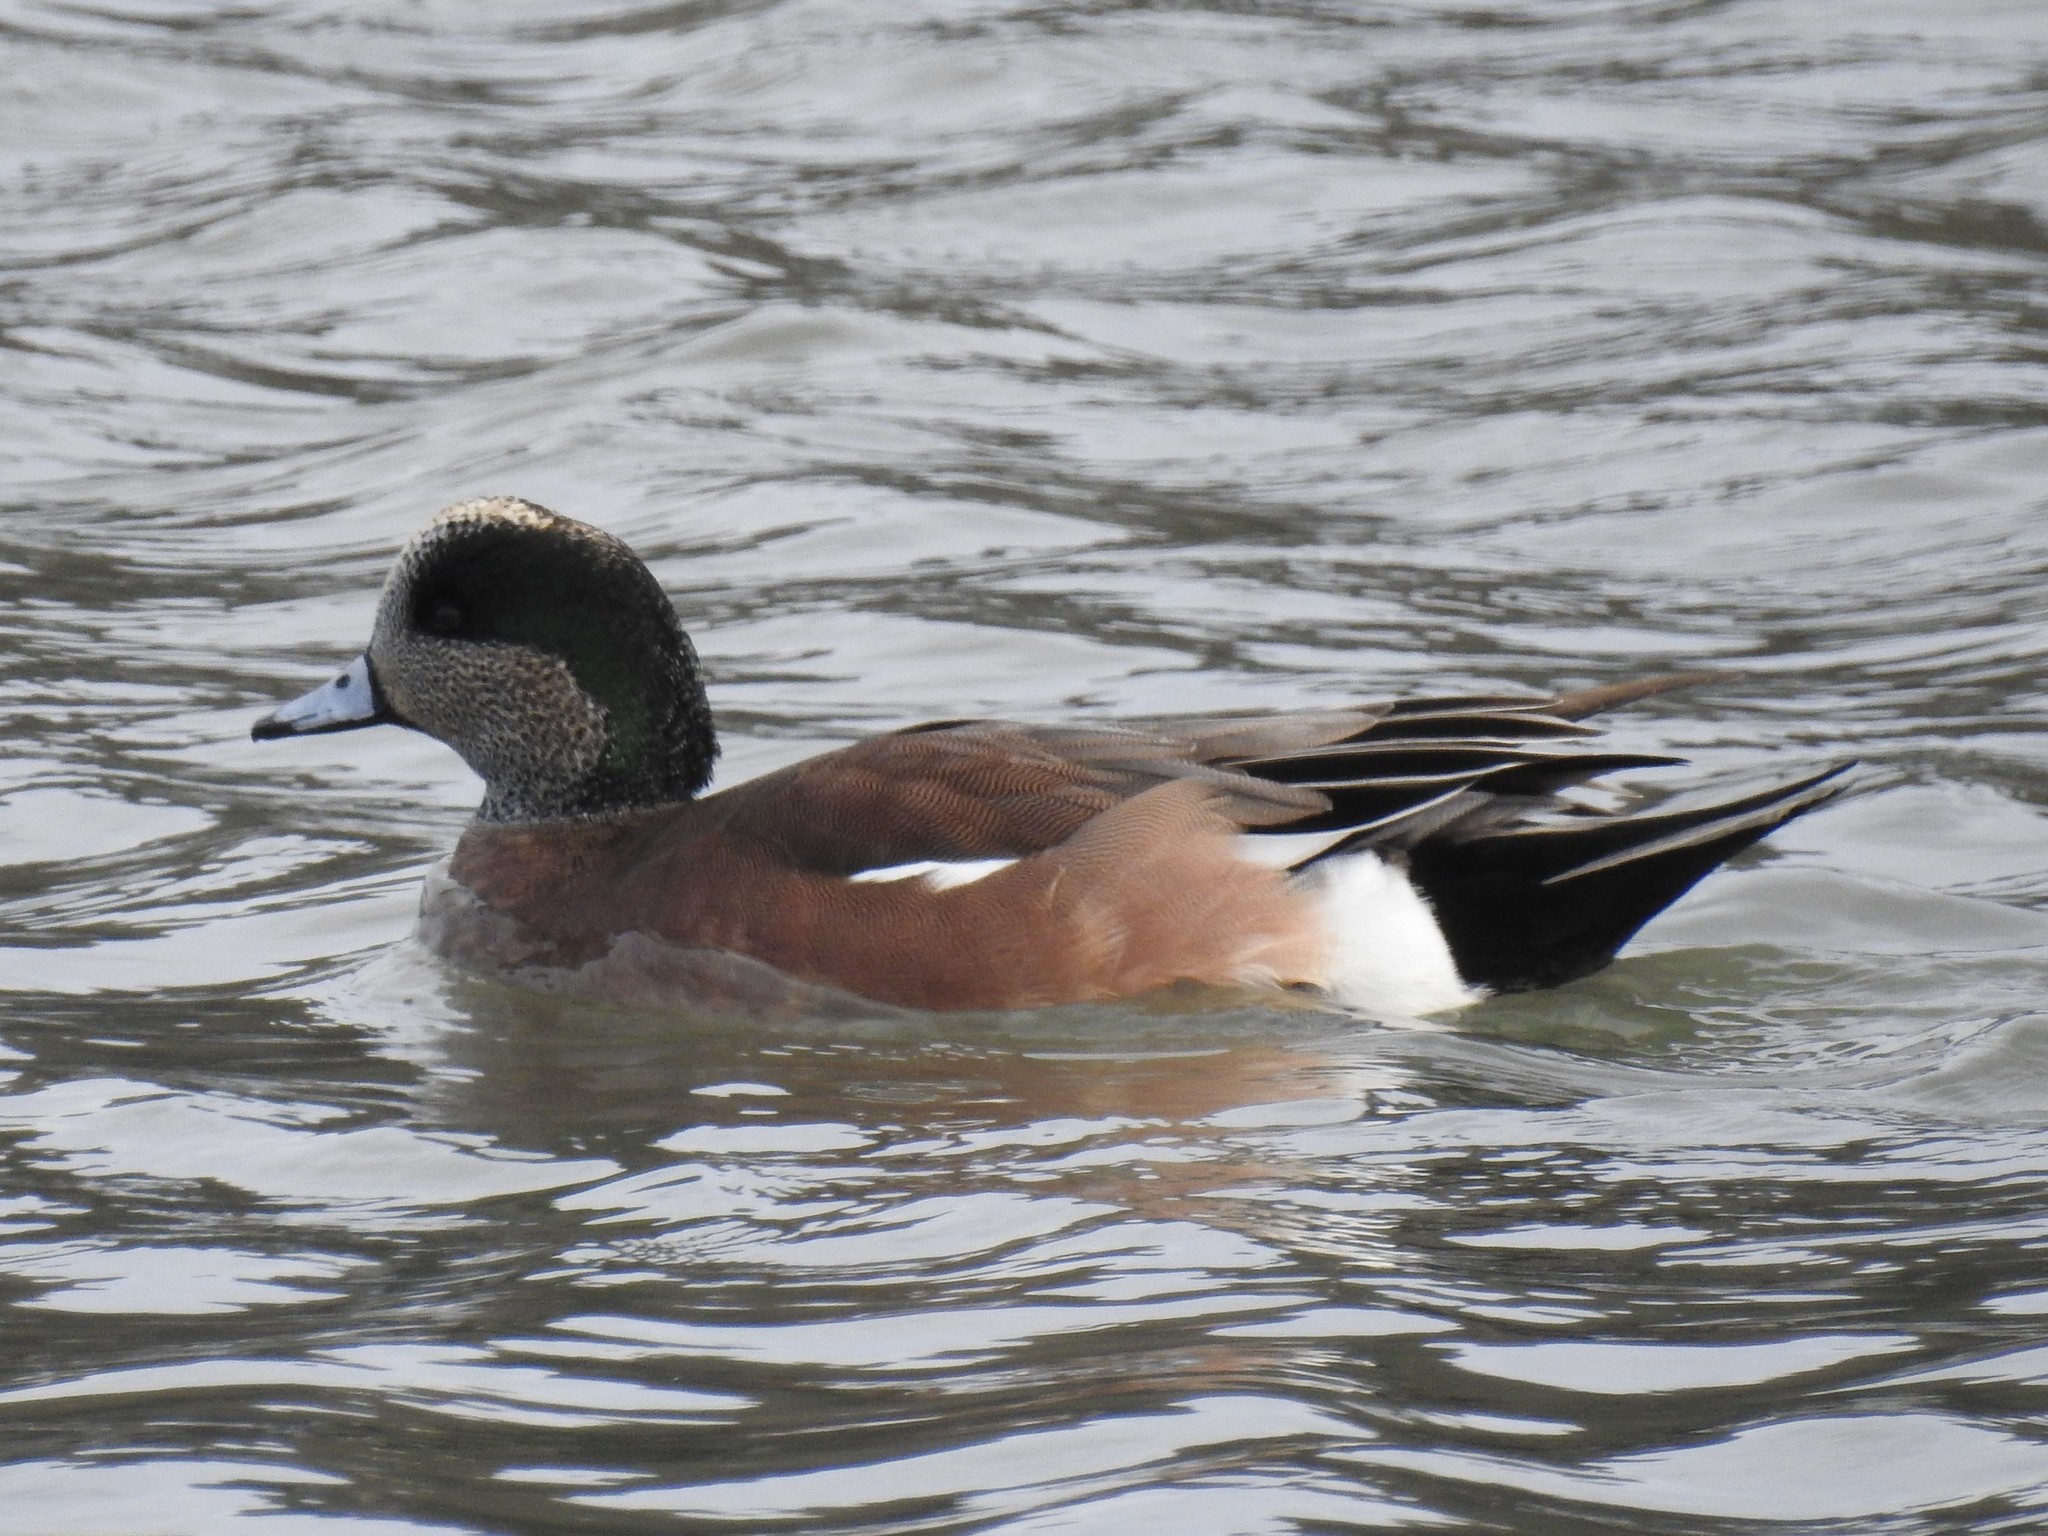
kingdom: Animalia
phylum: Chordata
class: Aves
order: Anseriformes
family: Anatidae
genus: Mareca
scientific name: Mareca americana
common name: American wigeon
